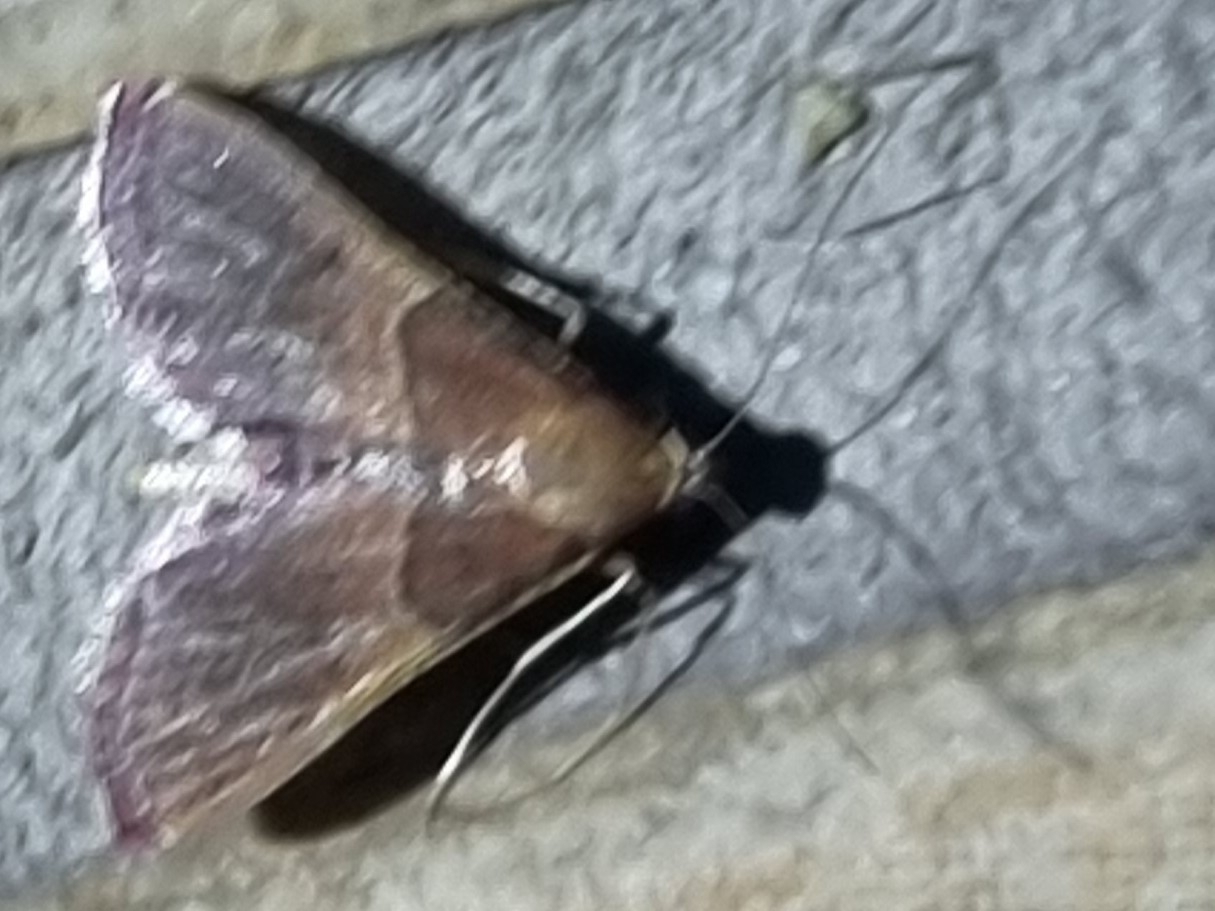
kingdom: Animalia
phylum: Arthropoda
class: Insecta
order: Lepidoptera
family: Pyralidae
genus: Endotricha
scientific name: Endotricha mesenterialis
